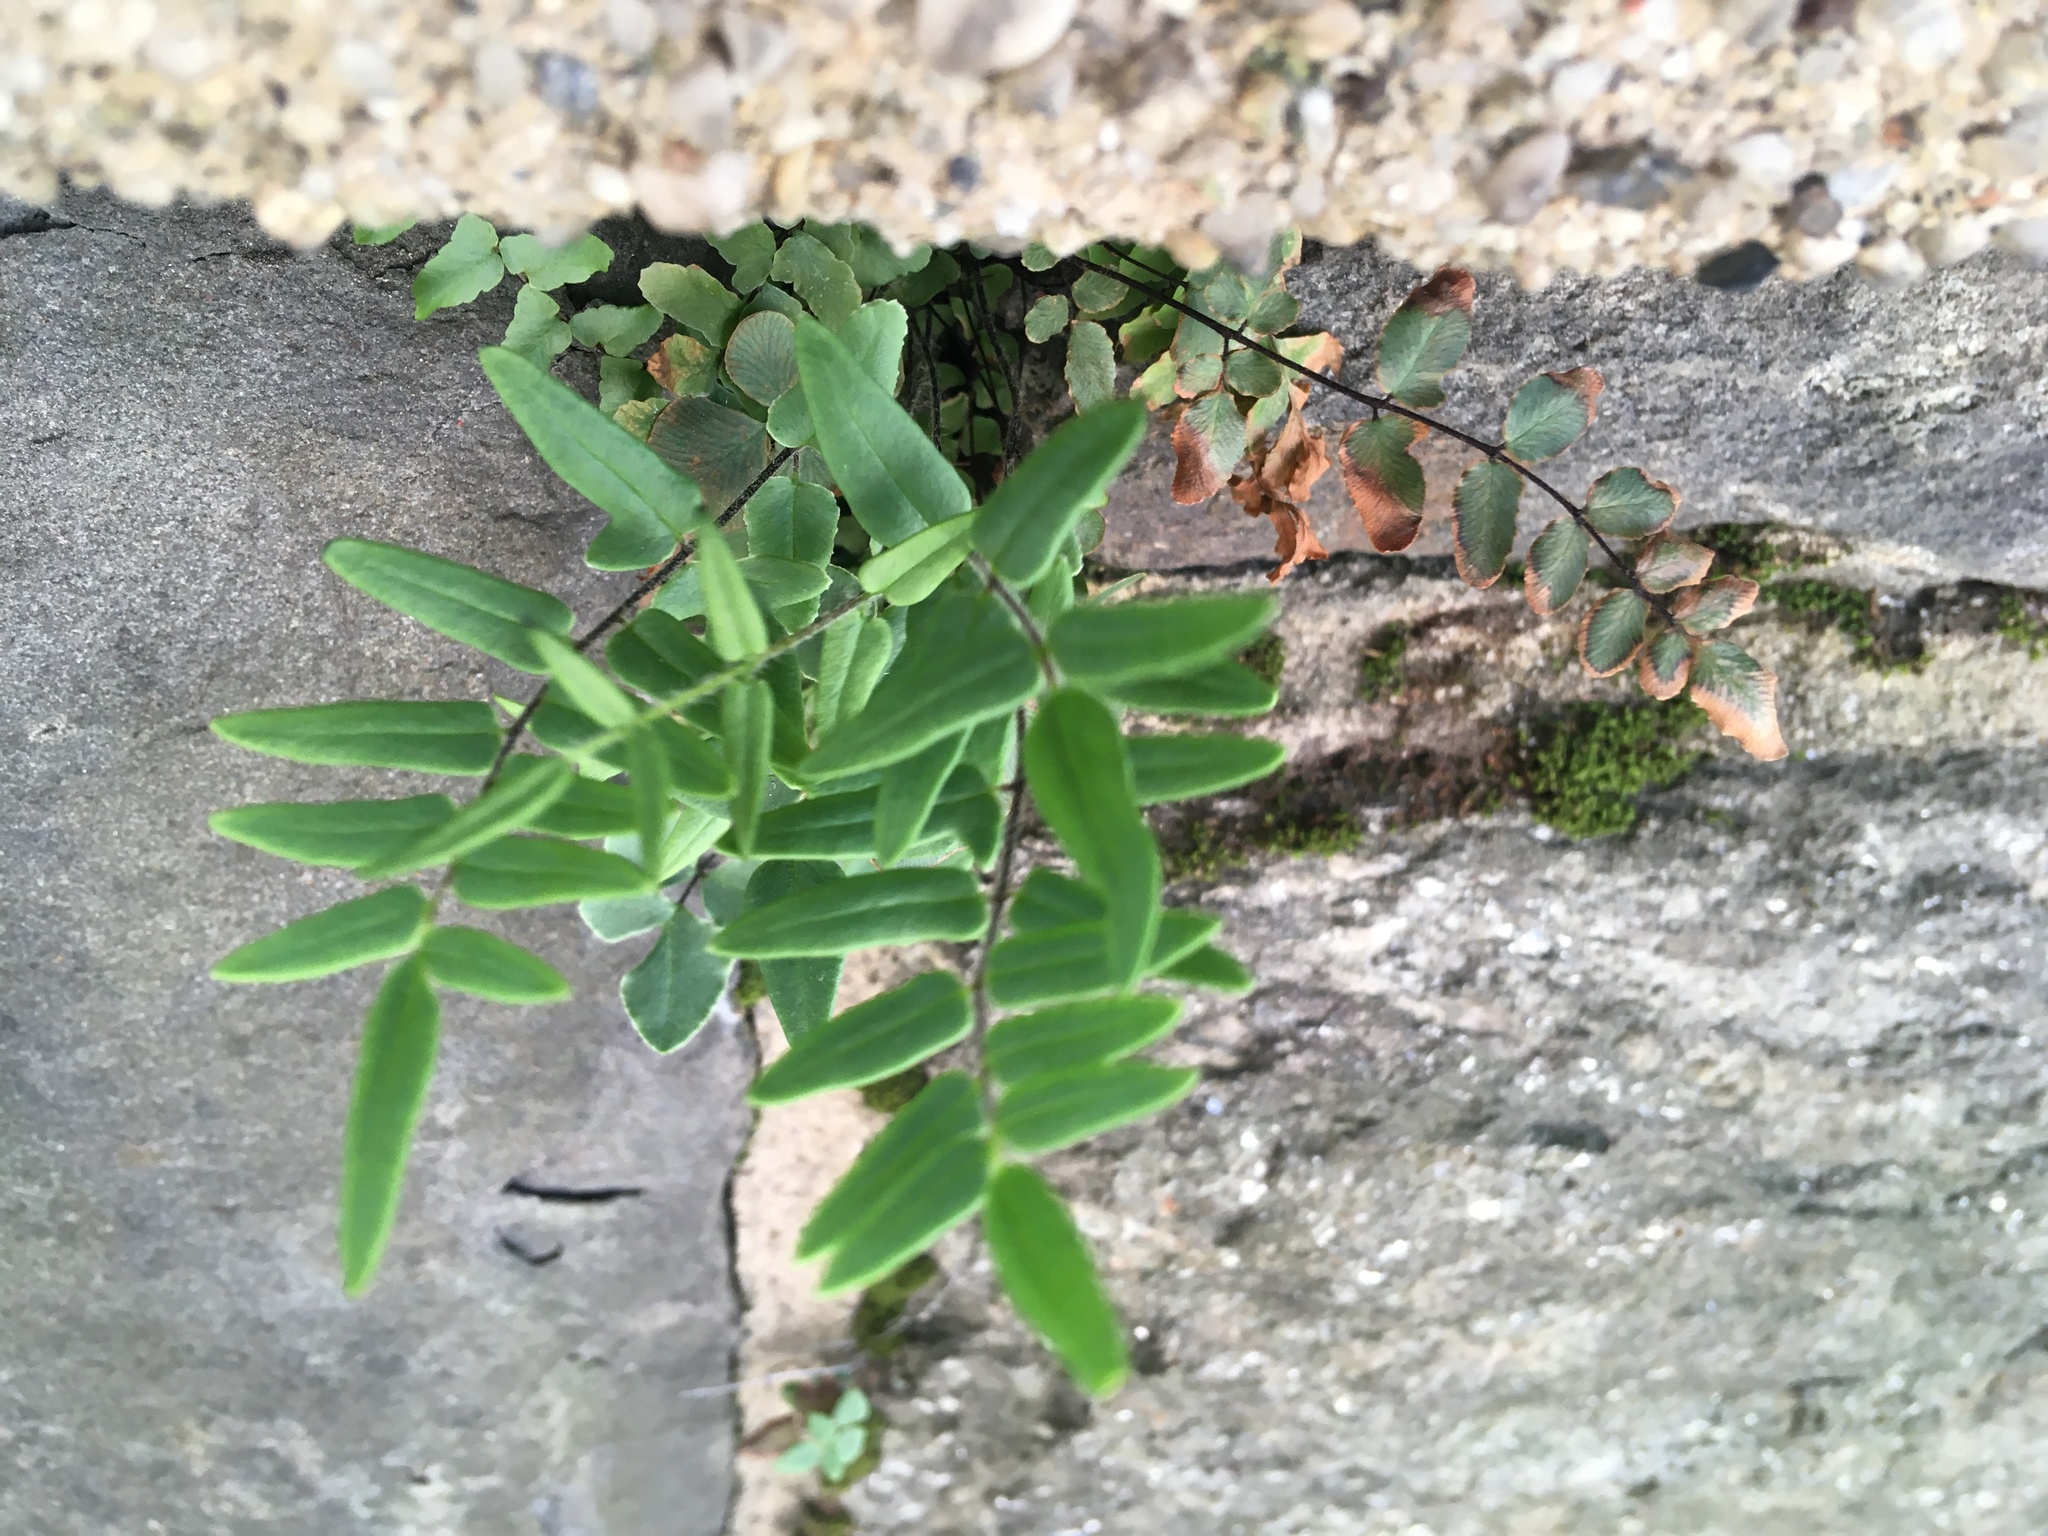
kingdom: Plantae
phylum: Tracheophyta
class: Polypodiopsida
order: Polypodiales
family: Pteridaceae
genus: Pellaea
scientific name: Pellaea atropurpurea
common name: Hairy cliffbrake
